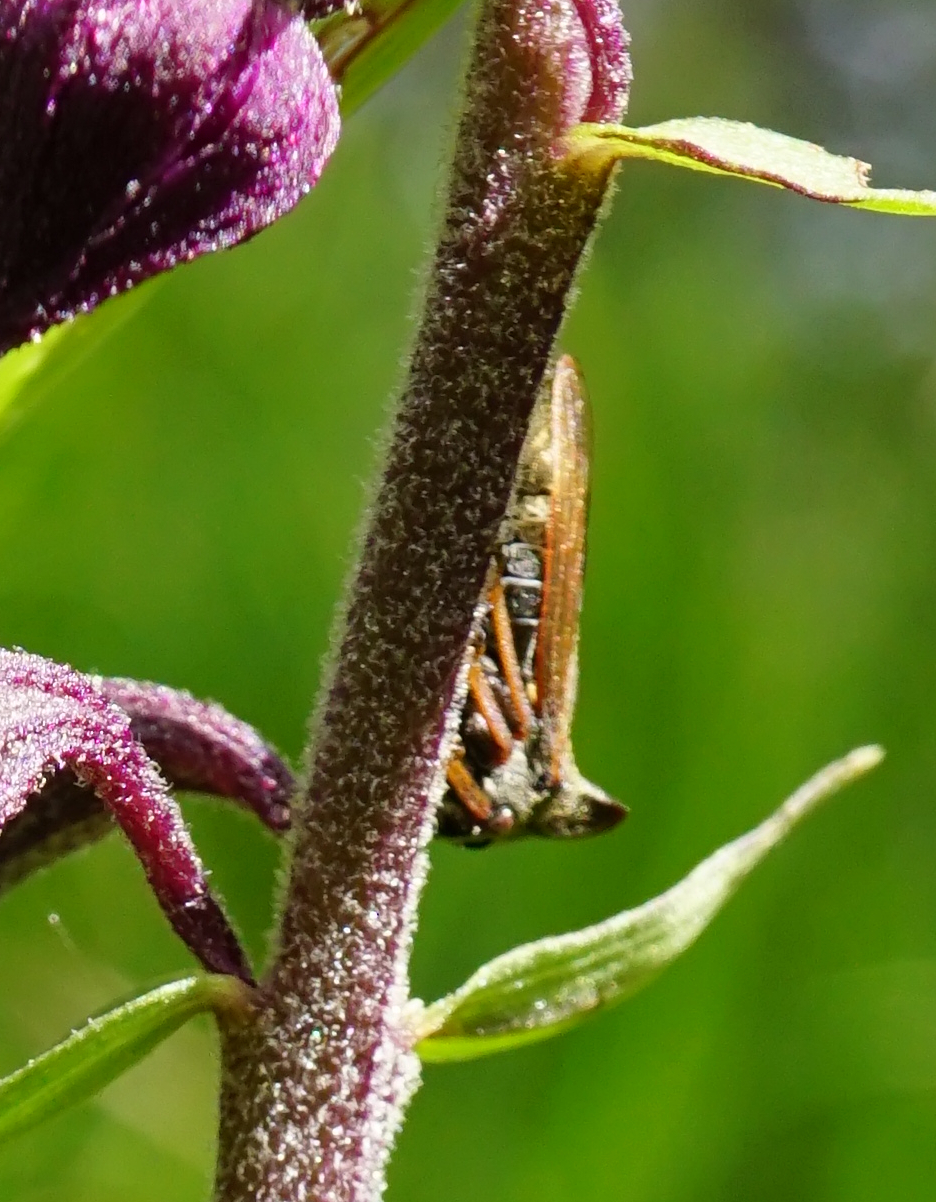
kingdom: Animalia
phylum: Arthropoda
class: Insecta
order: Hemiptera
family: Membracidae
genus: Centrotus
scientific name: Centrotus cornuta
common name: Treehopper
